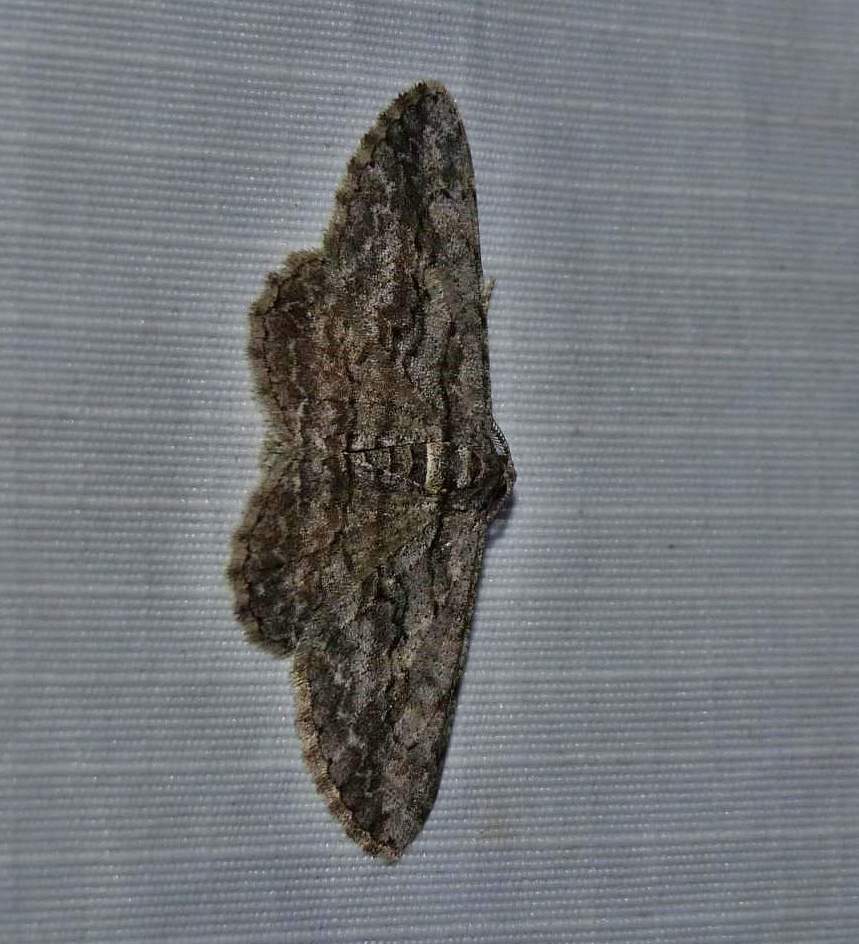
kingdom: Animalia
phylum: Arthropoda
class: Insecta
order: Lepidoptera
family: Geometridae
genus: Anavitrinella
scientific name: Anavitrinella pampinaria
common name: Common gray
